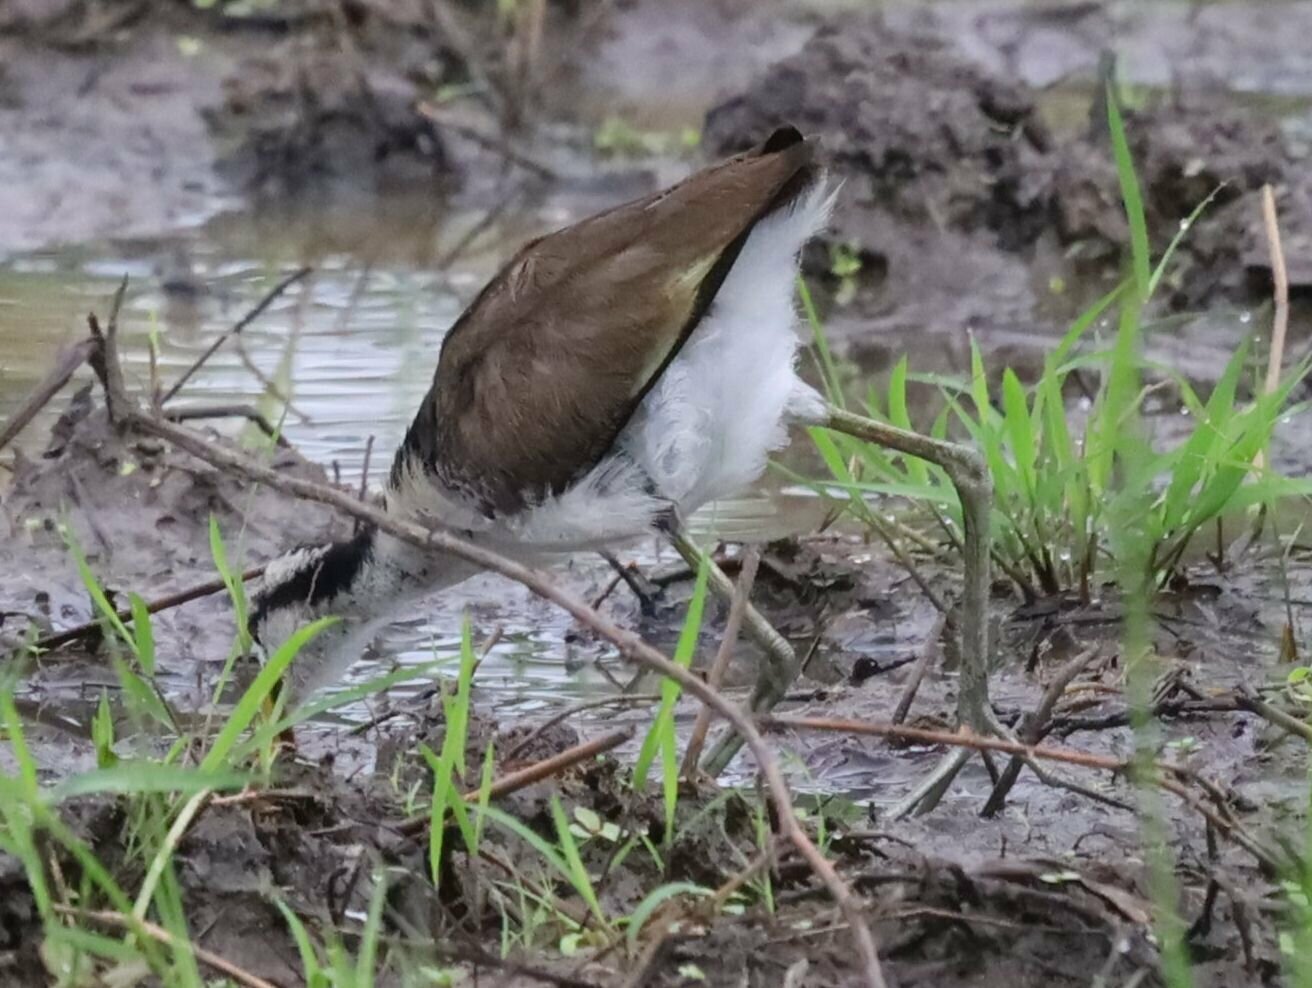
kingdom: Animalia
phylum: Chordata
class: Aves
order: Charadriiformes
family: Jacanidae
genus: Jacana
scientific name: Jacana jacana
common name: Wattled jacana
